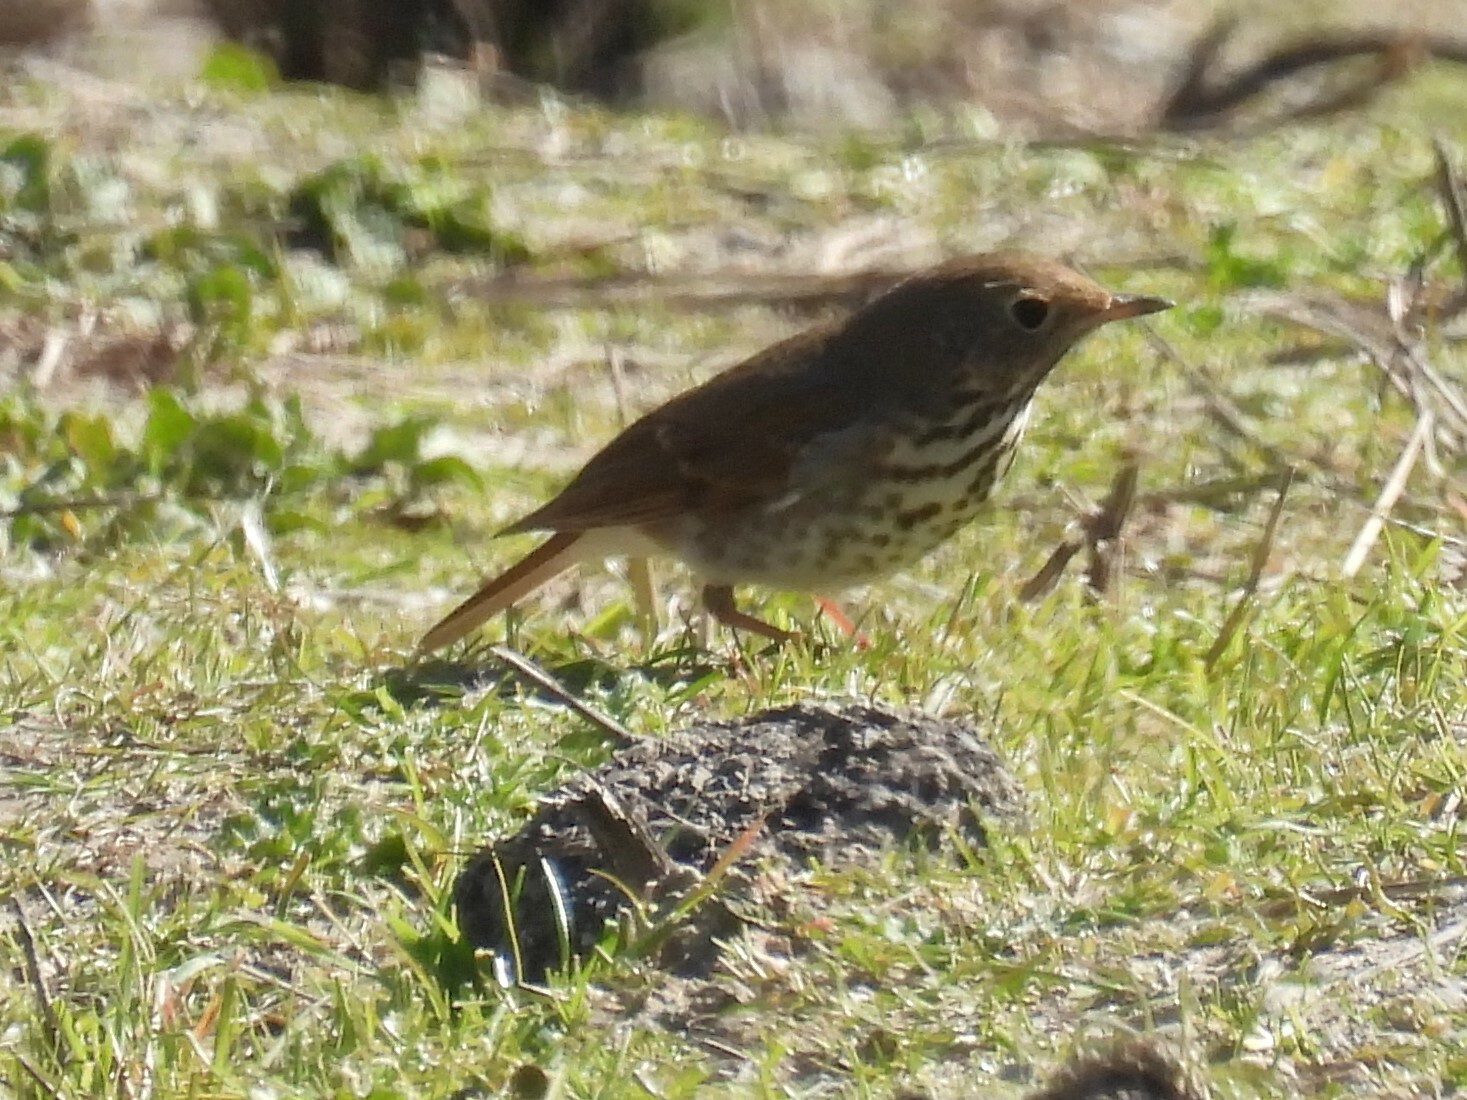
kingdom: Animalia
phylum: Chordata
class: Aves
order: Passeriformes
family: Turdidae
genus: Catharus
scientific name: Catharus guttatus
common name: Hermit thrush
